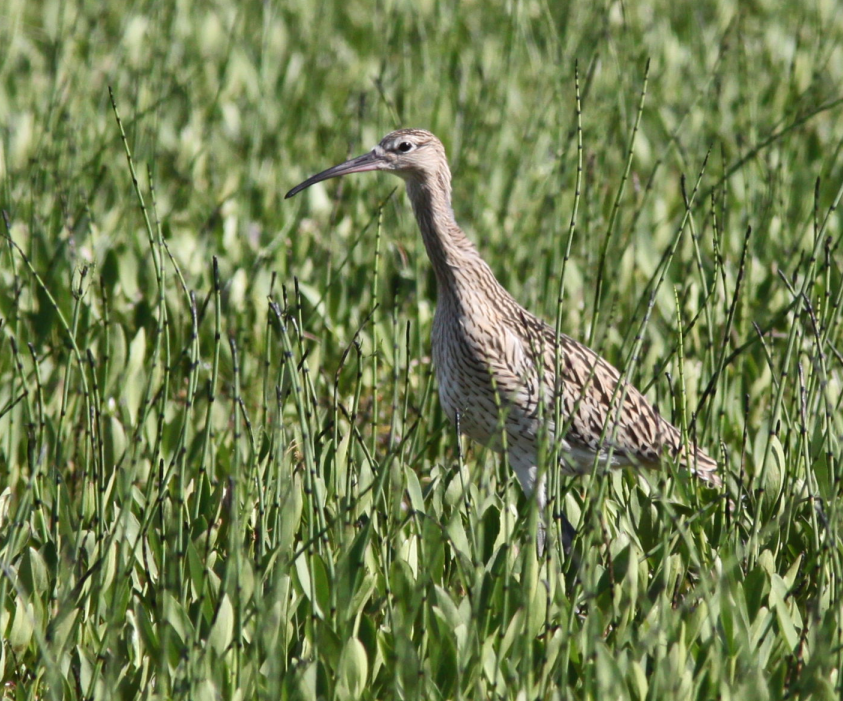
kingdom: Animalia
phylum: Chordata
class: Aves
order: Charadriiformes
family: Scolopacidae
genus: Numenius
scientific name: Numenius arquata
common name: Eurasian curlew
